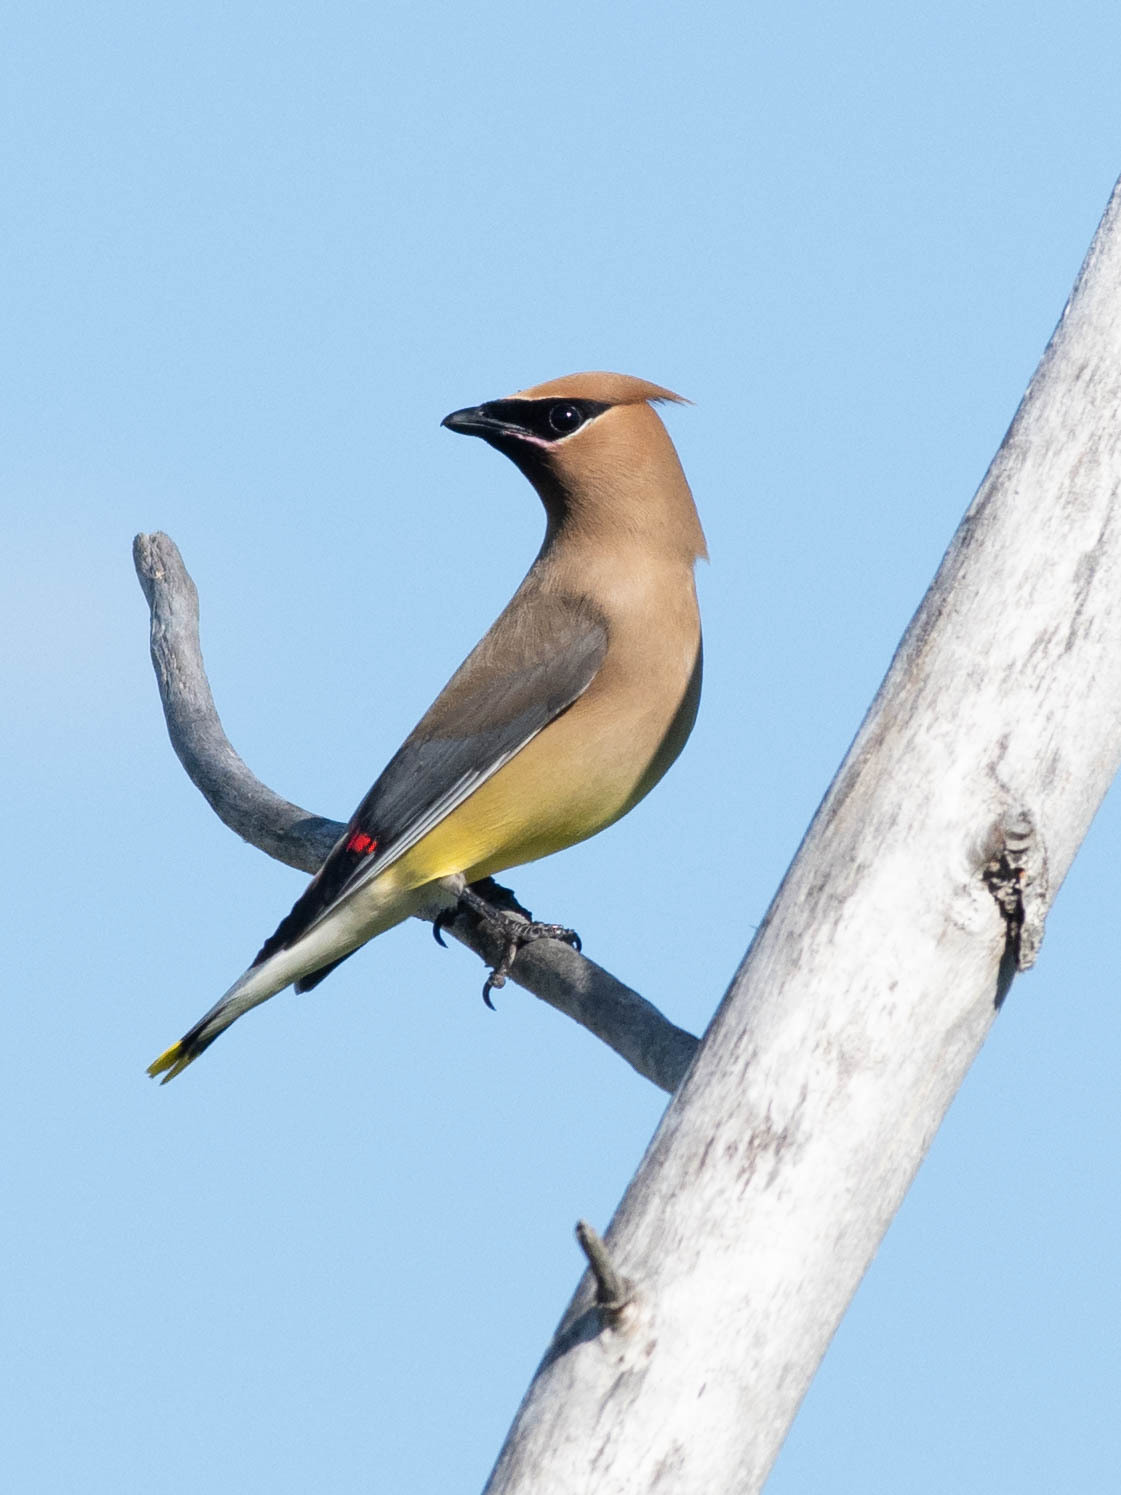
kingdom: Animalia
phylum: Chordata
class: Aves
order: Passeriformes
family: Bombycillidae
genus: Bombycilla
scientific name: Bombycilla cedrorum
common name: Cedar waxwing
